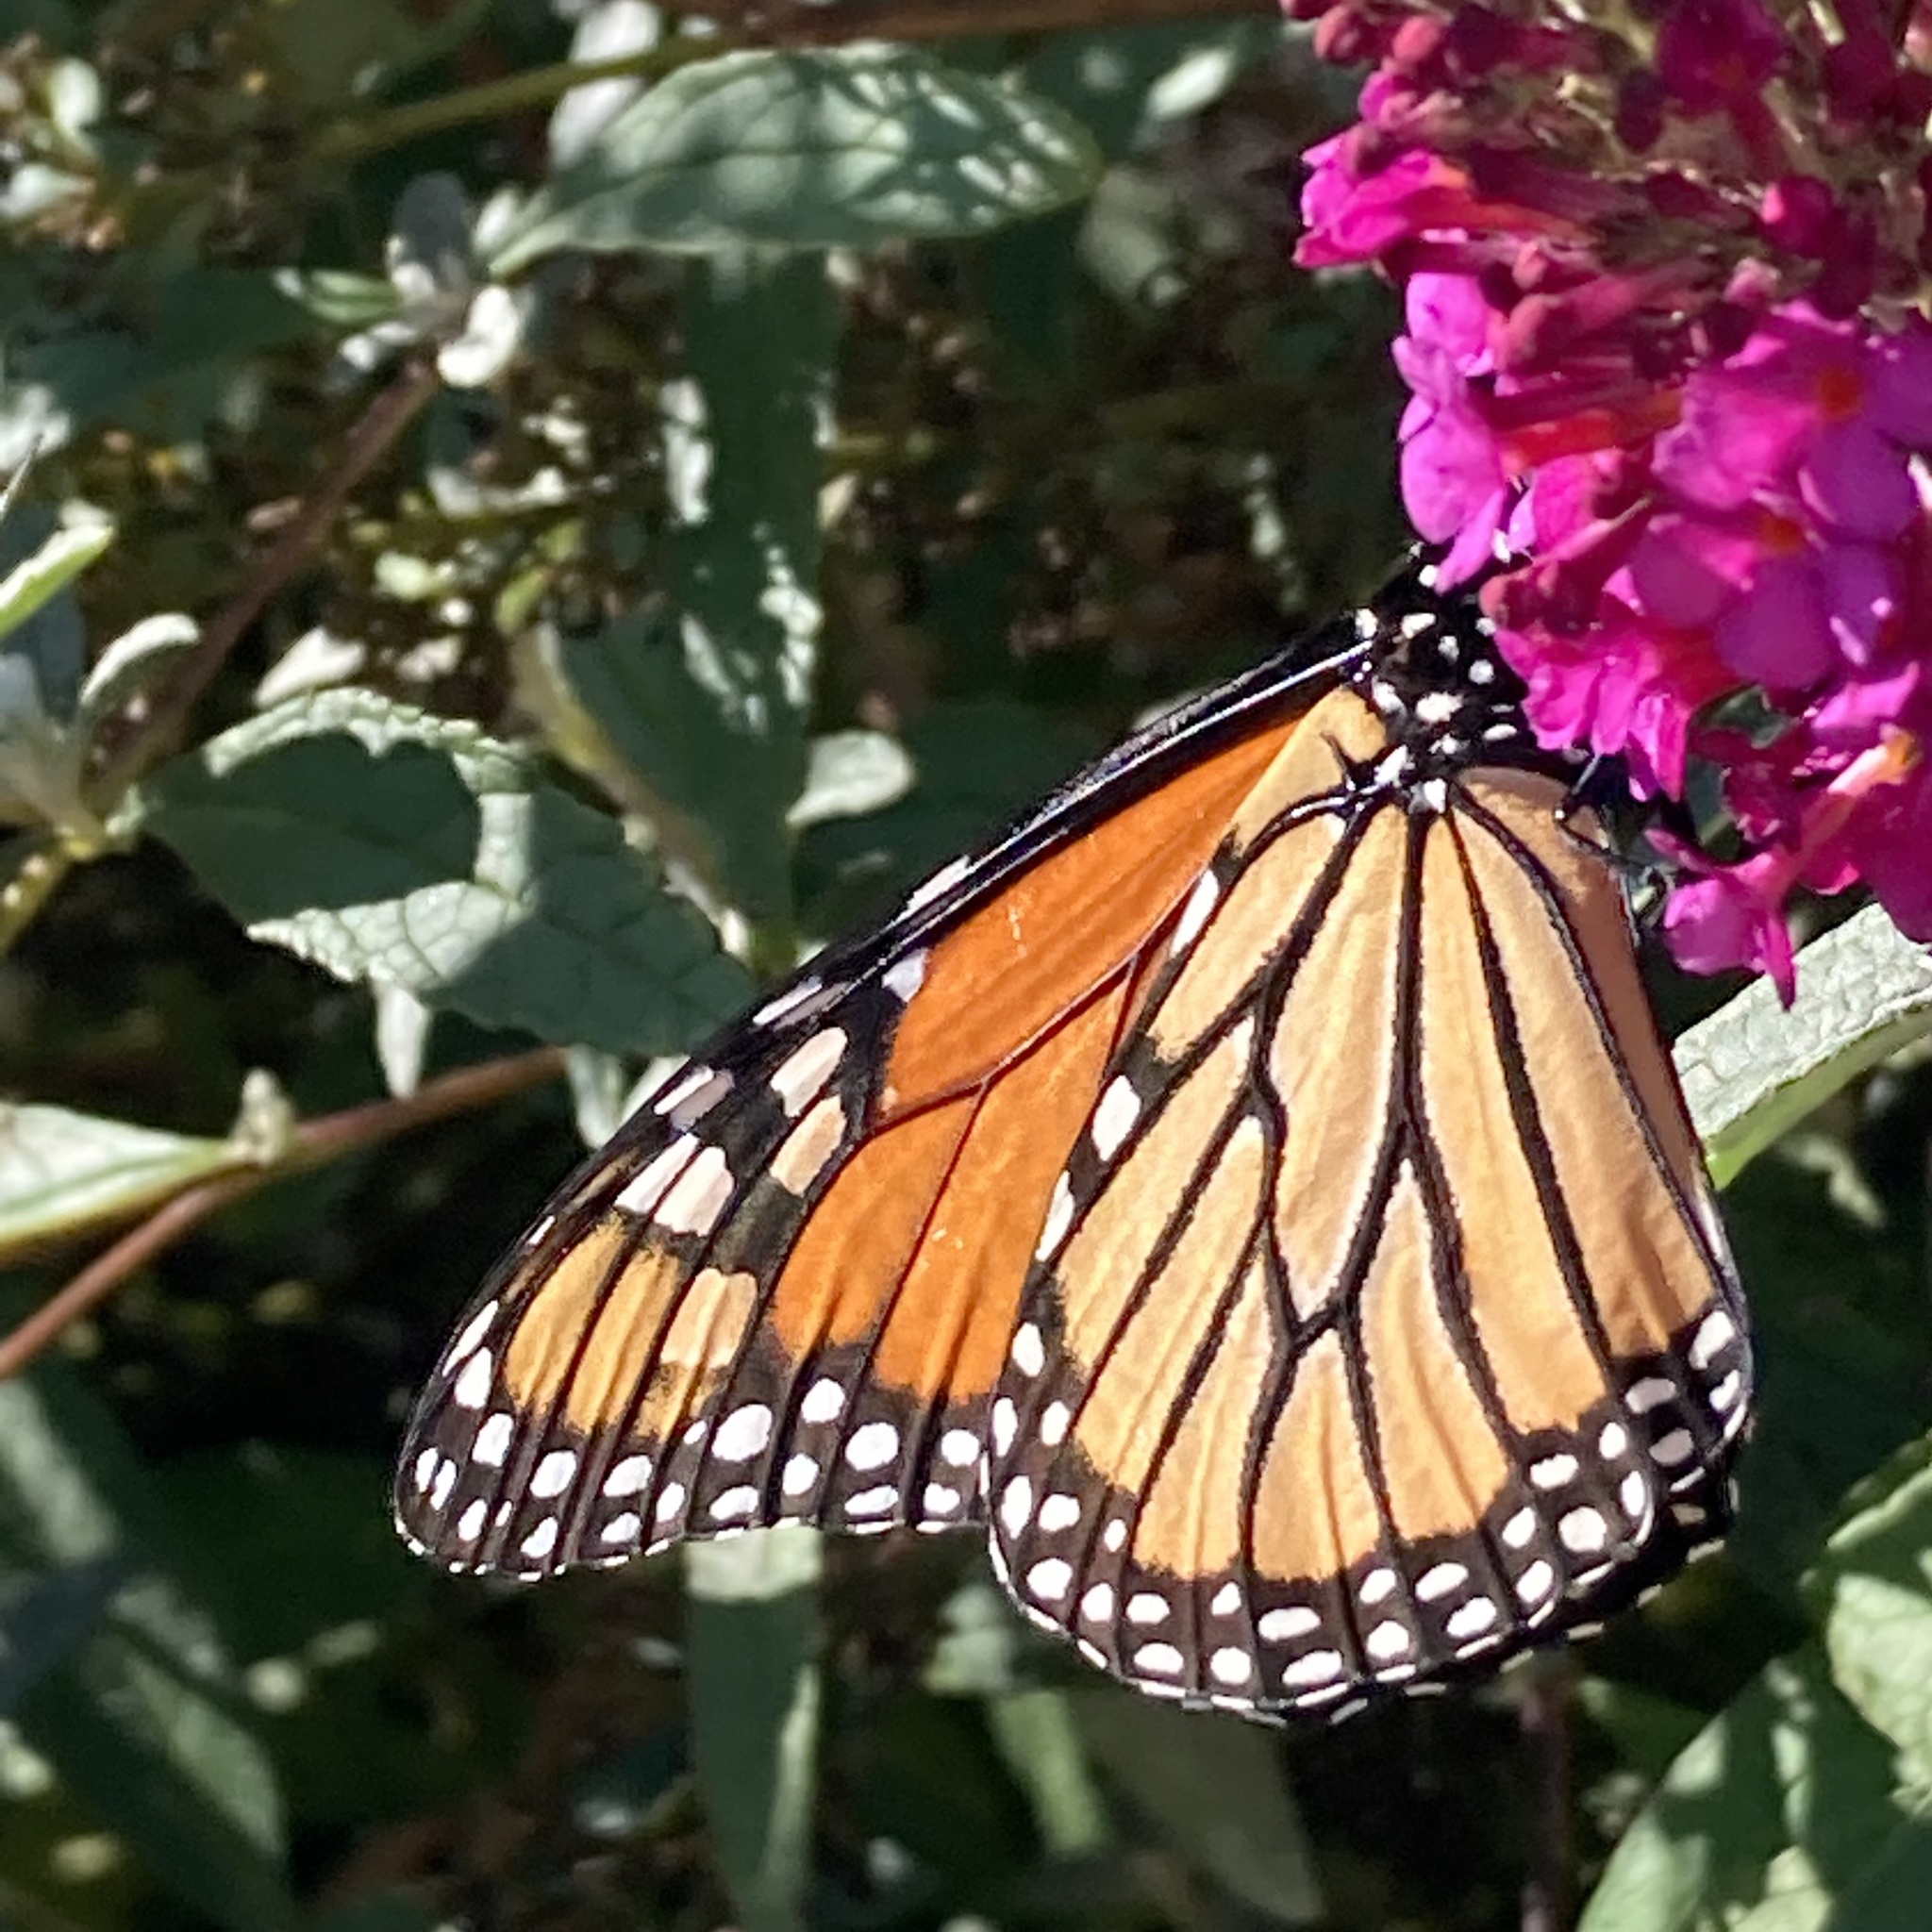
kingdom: Animalia
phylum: Arthropoda
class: Insecta
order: Lepidoptera
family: Nymphalidae
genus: Danaus
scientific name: Danaus plexippus
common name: Monarch
